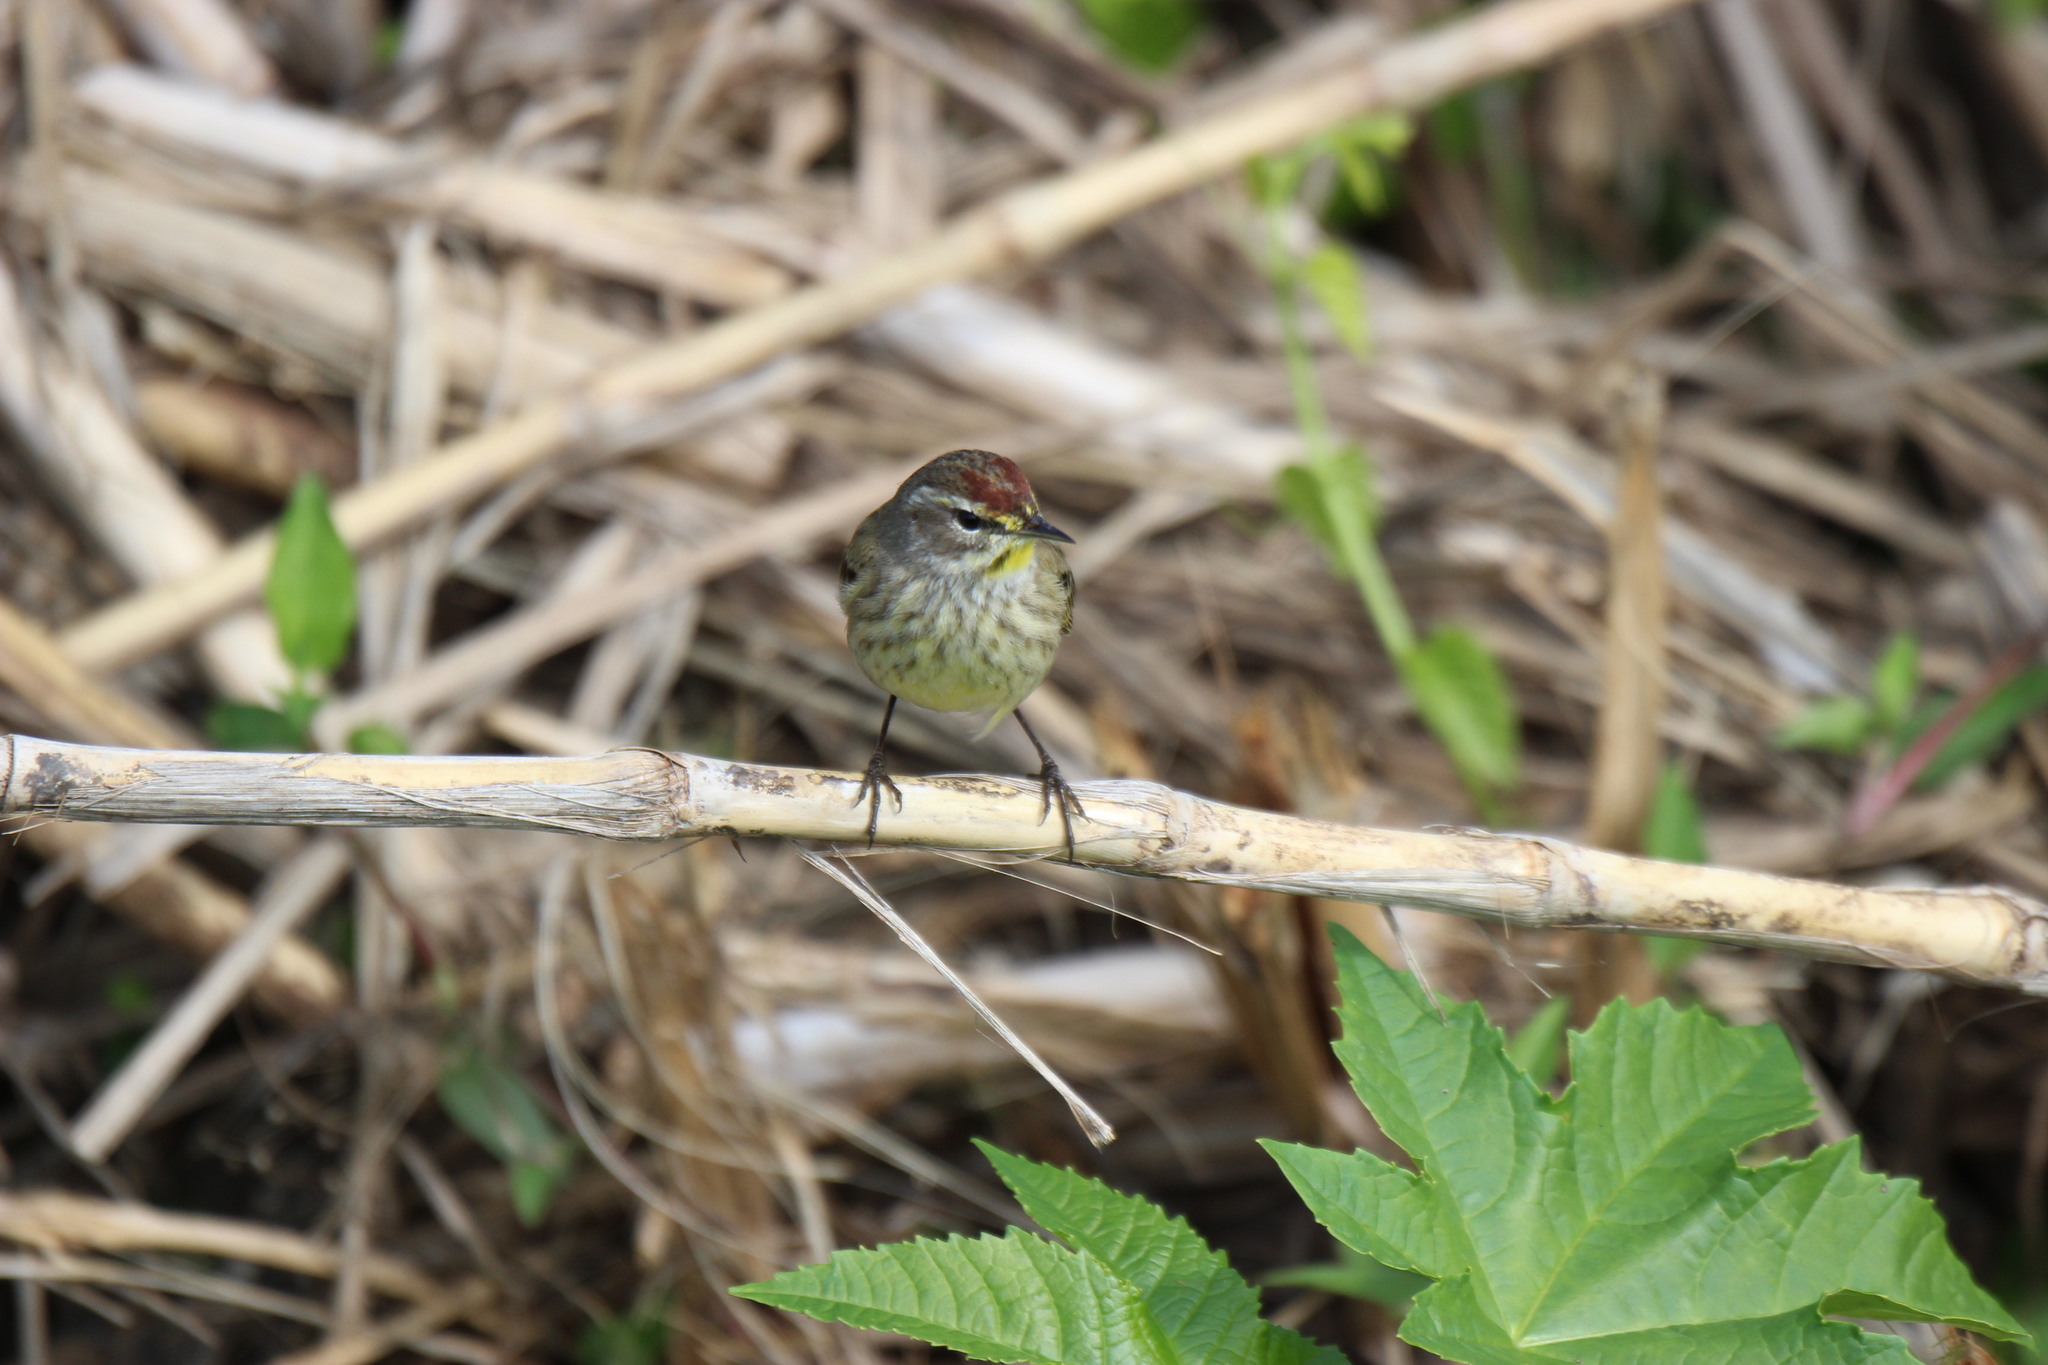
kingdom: Animalia
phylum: Chordata
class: Aves
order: Passeriformes
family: Parulidae
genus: Setophaga
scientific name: Setophaga palmarum
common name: Palm warbler
